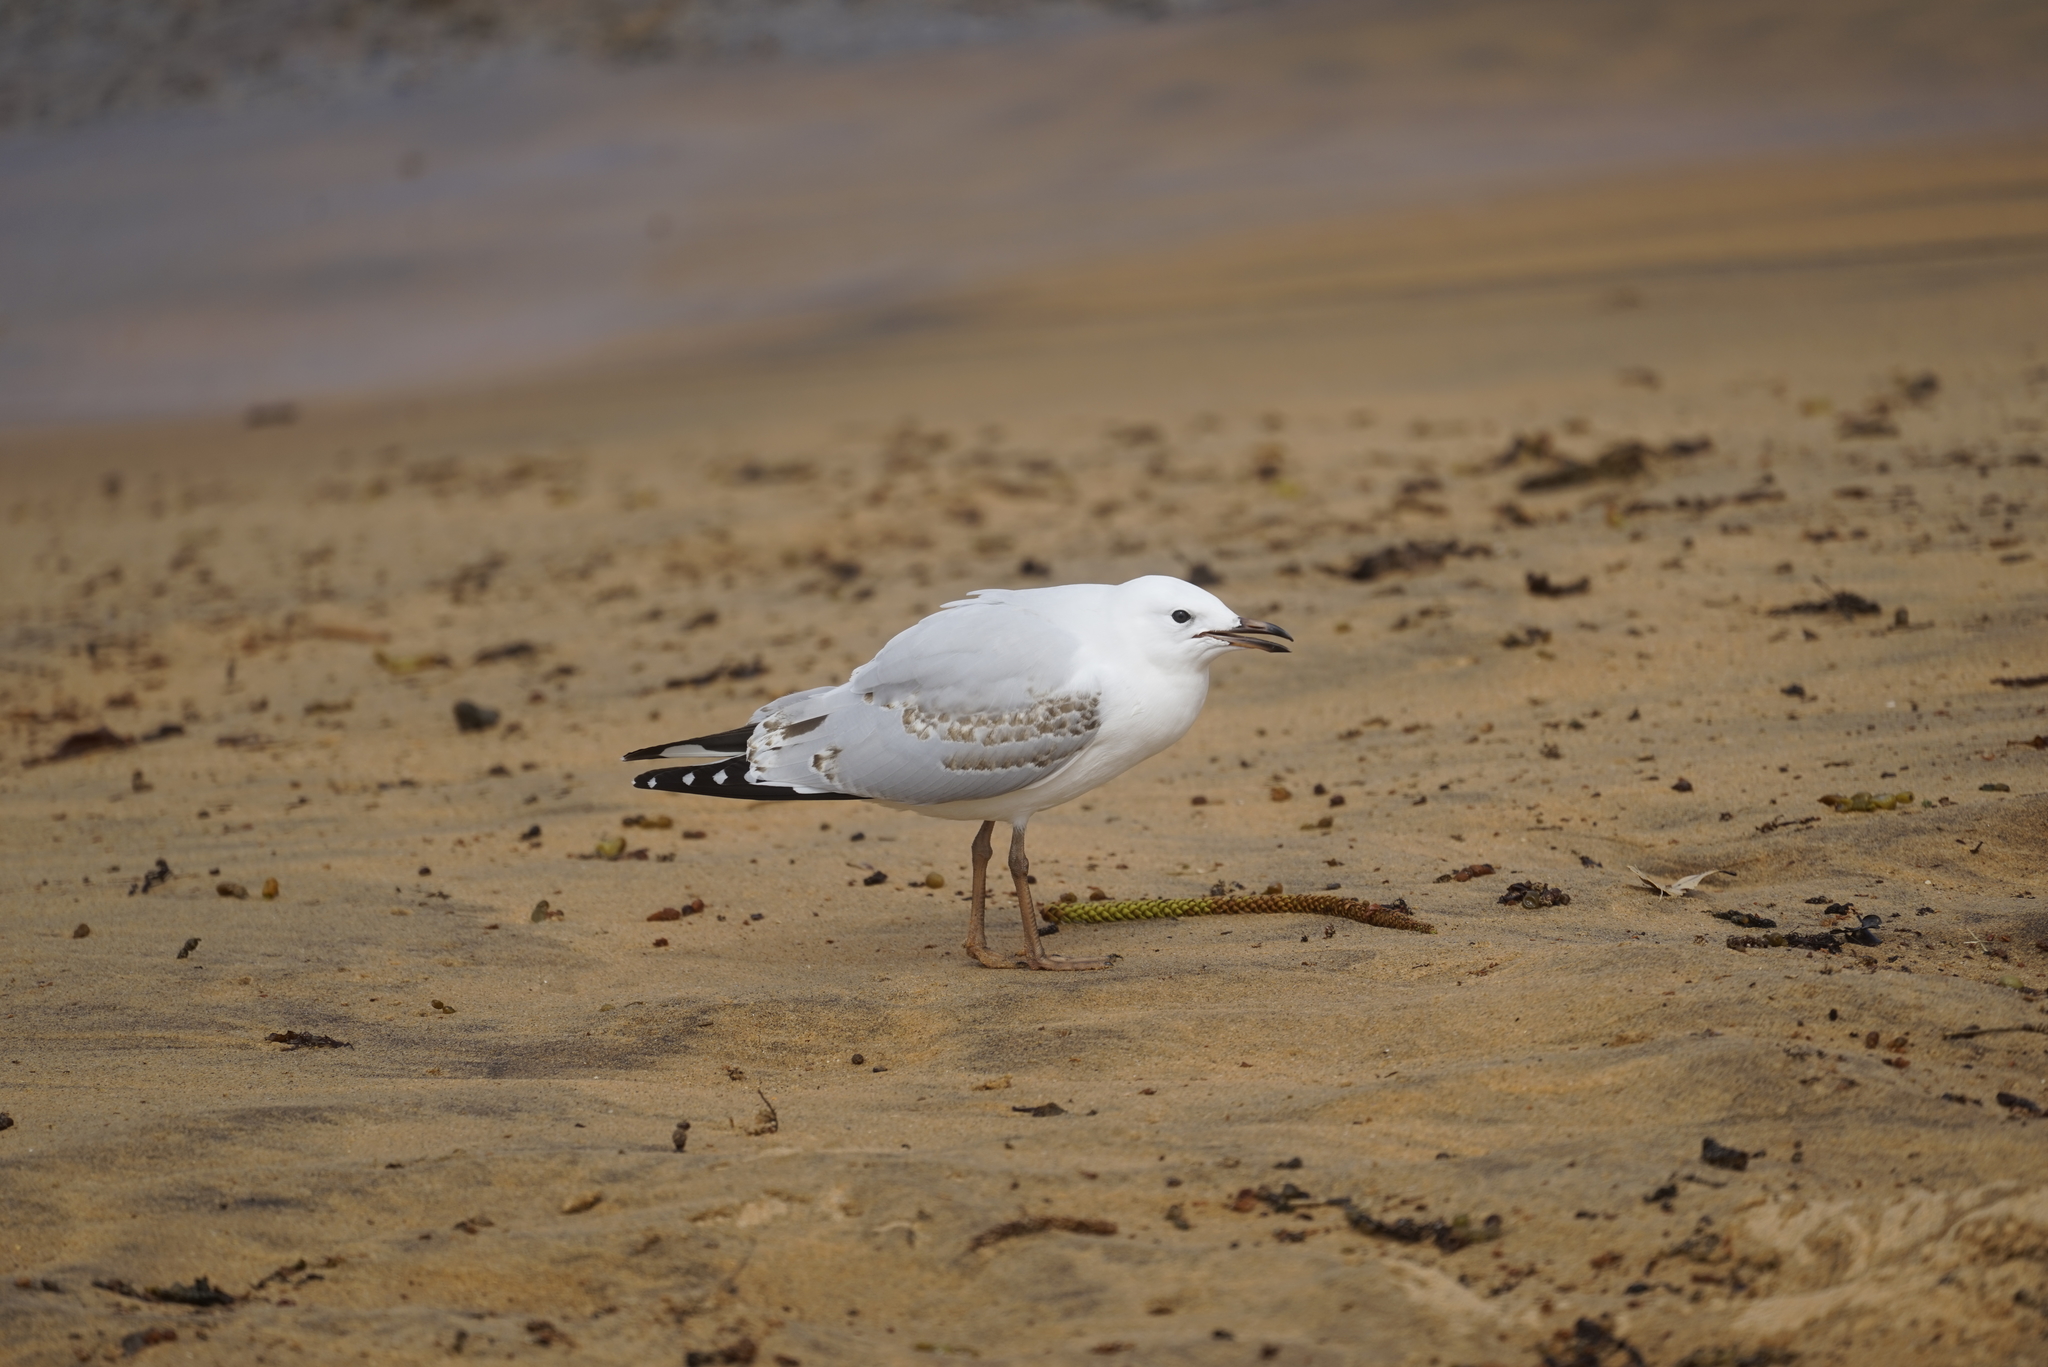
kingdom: Animalia
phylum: Chordata
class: Aves
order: Charadriiformes
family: Laridae
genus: Chroicocephalus
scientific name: Chroicocephalus novaehollandiae
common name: Silver gull
